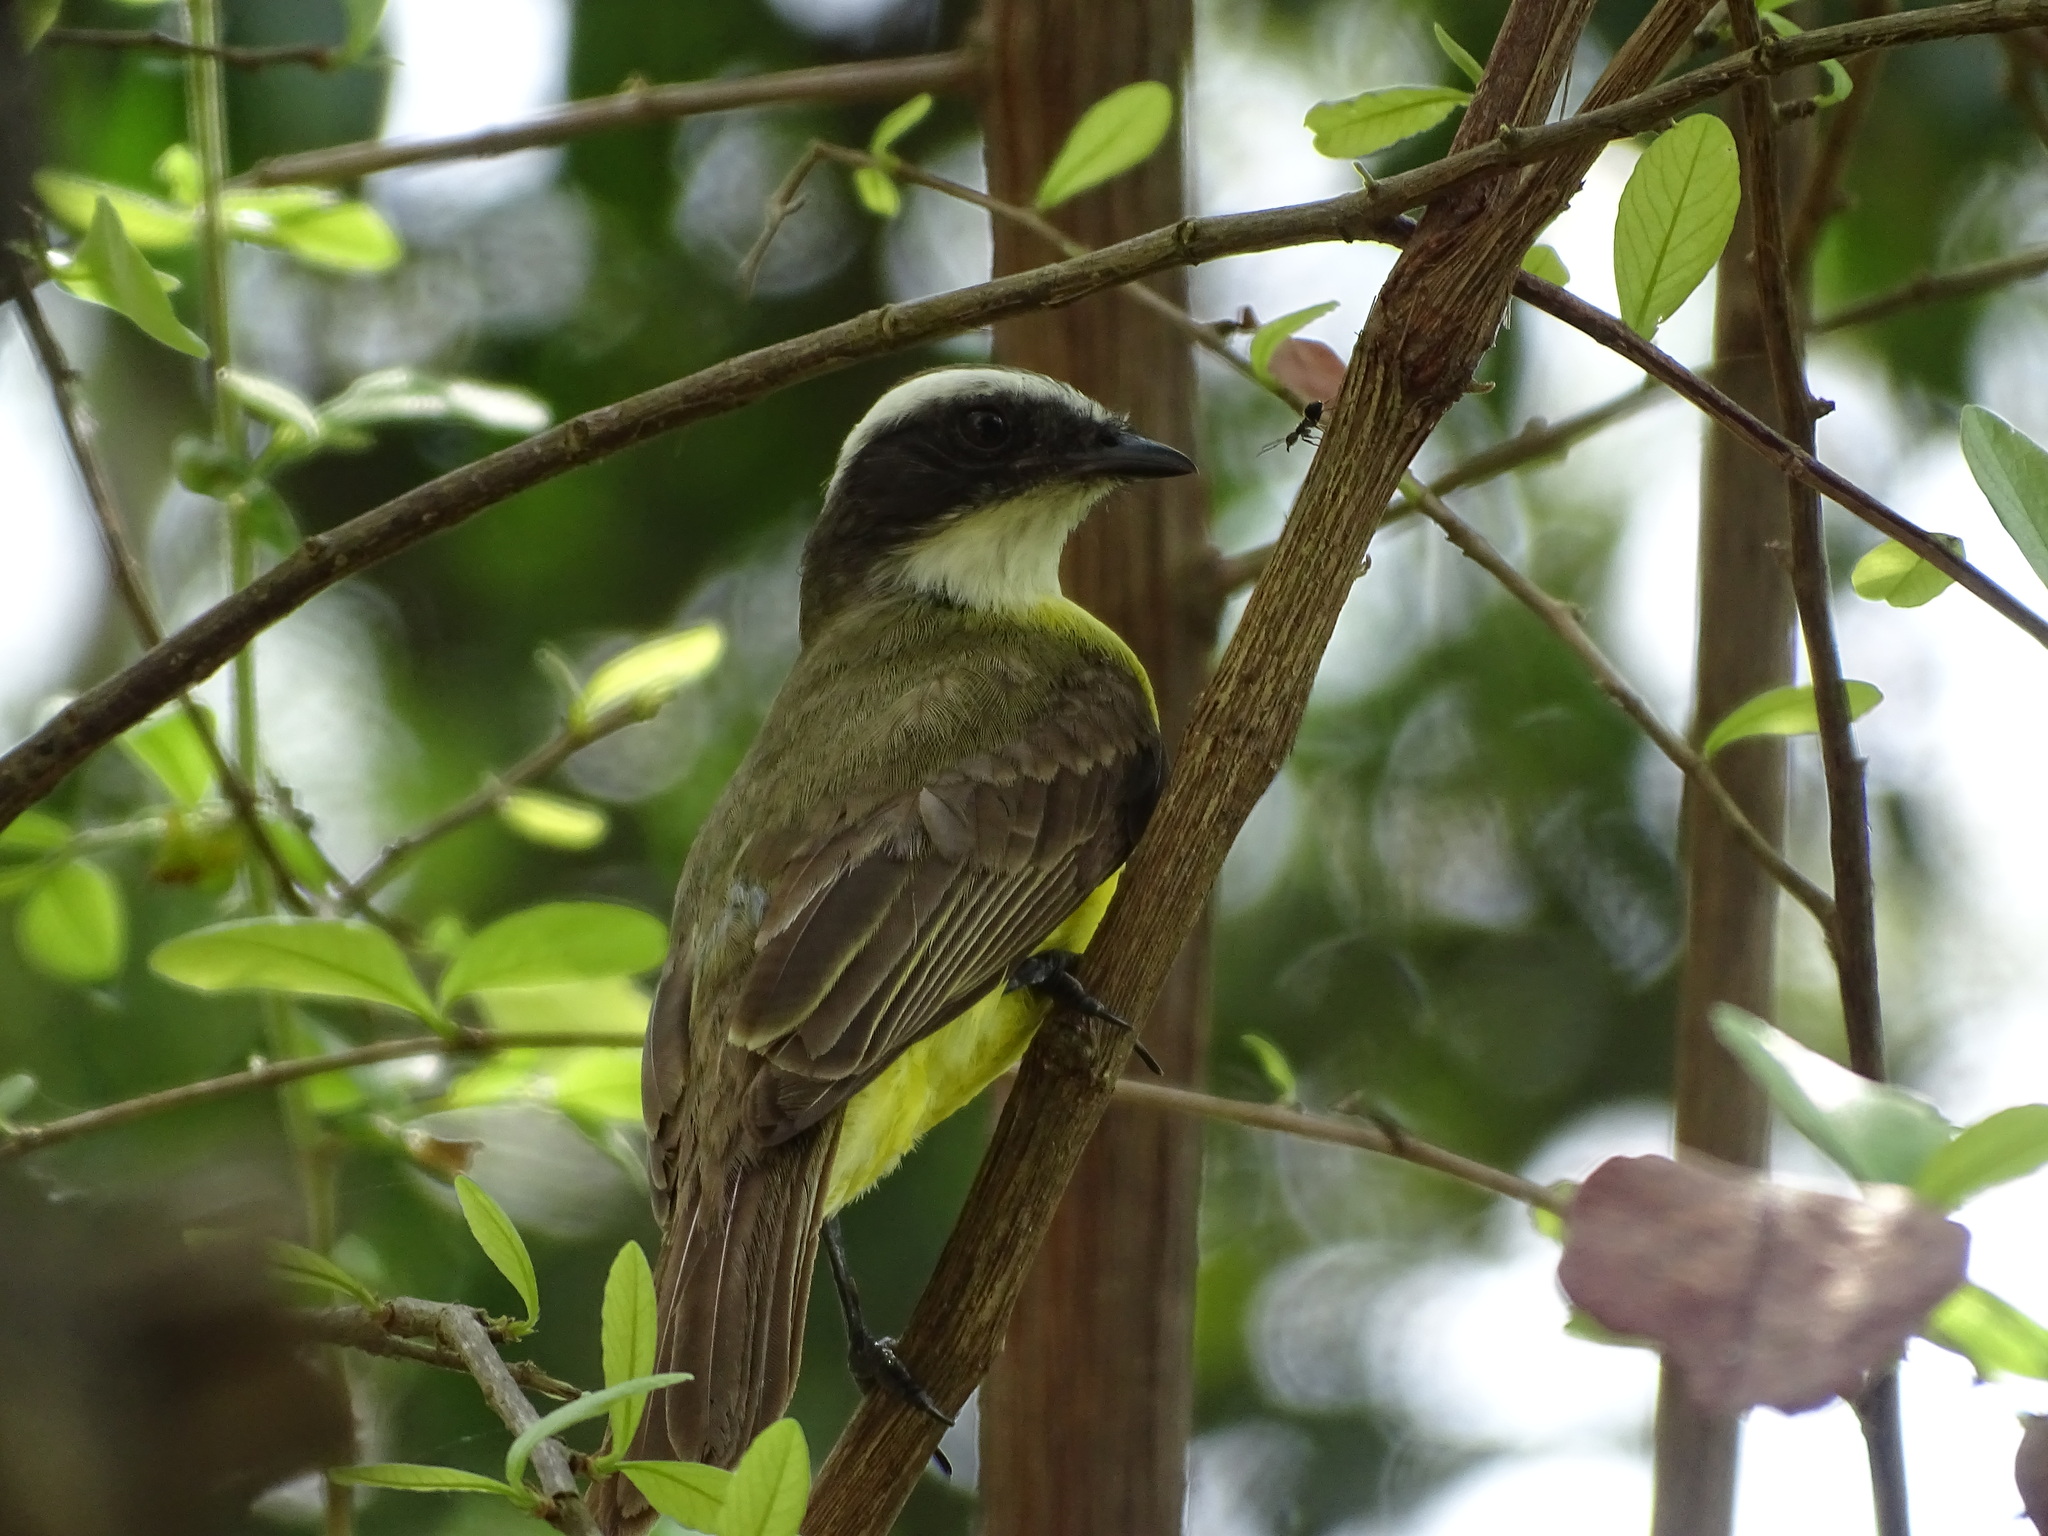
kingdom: Animalia
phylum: Chordata
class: Aves
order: Passeriformes
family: Tyrannidae
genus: Myiozetetes
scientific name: Myiozetetes similis
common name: Social flycatcher
